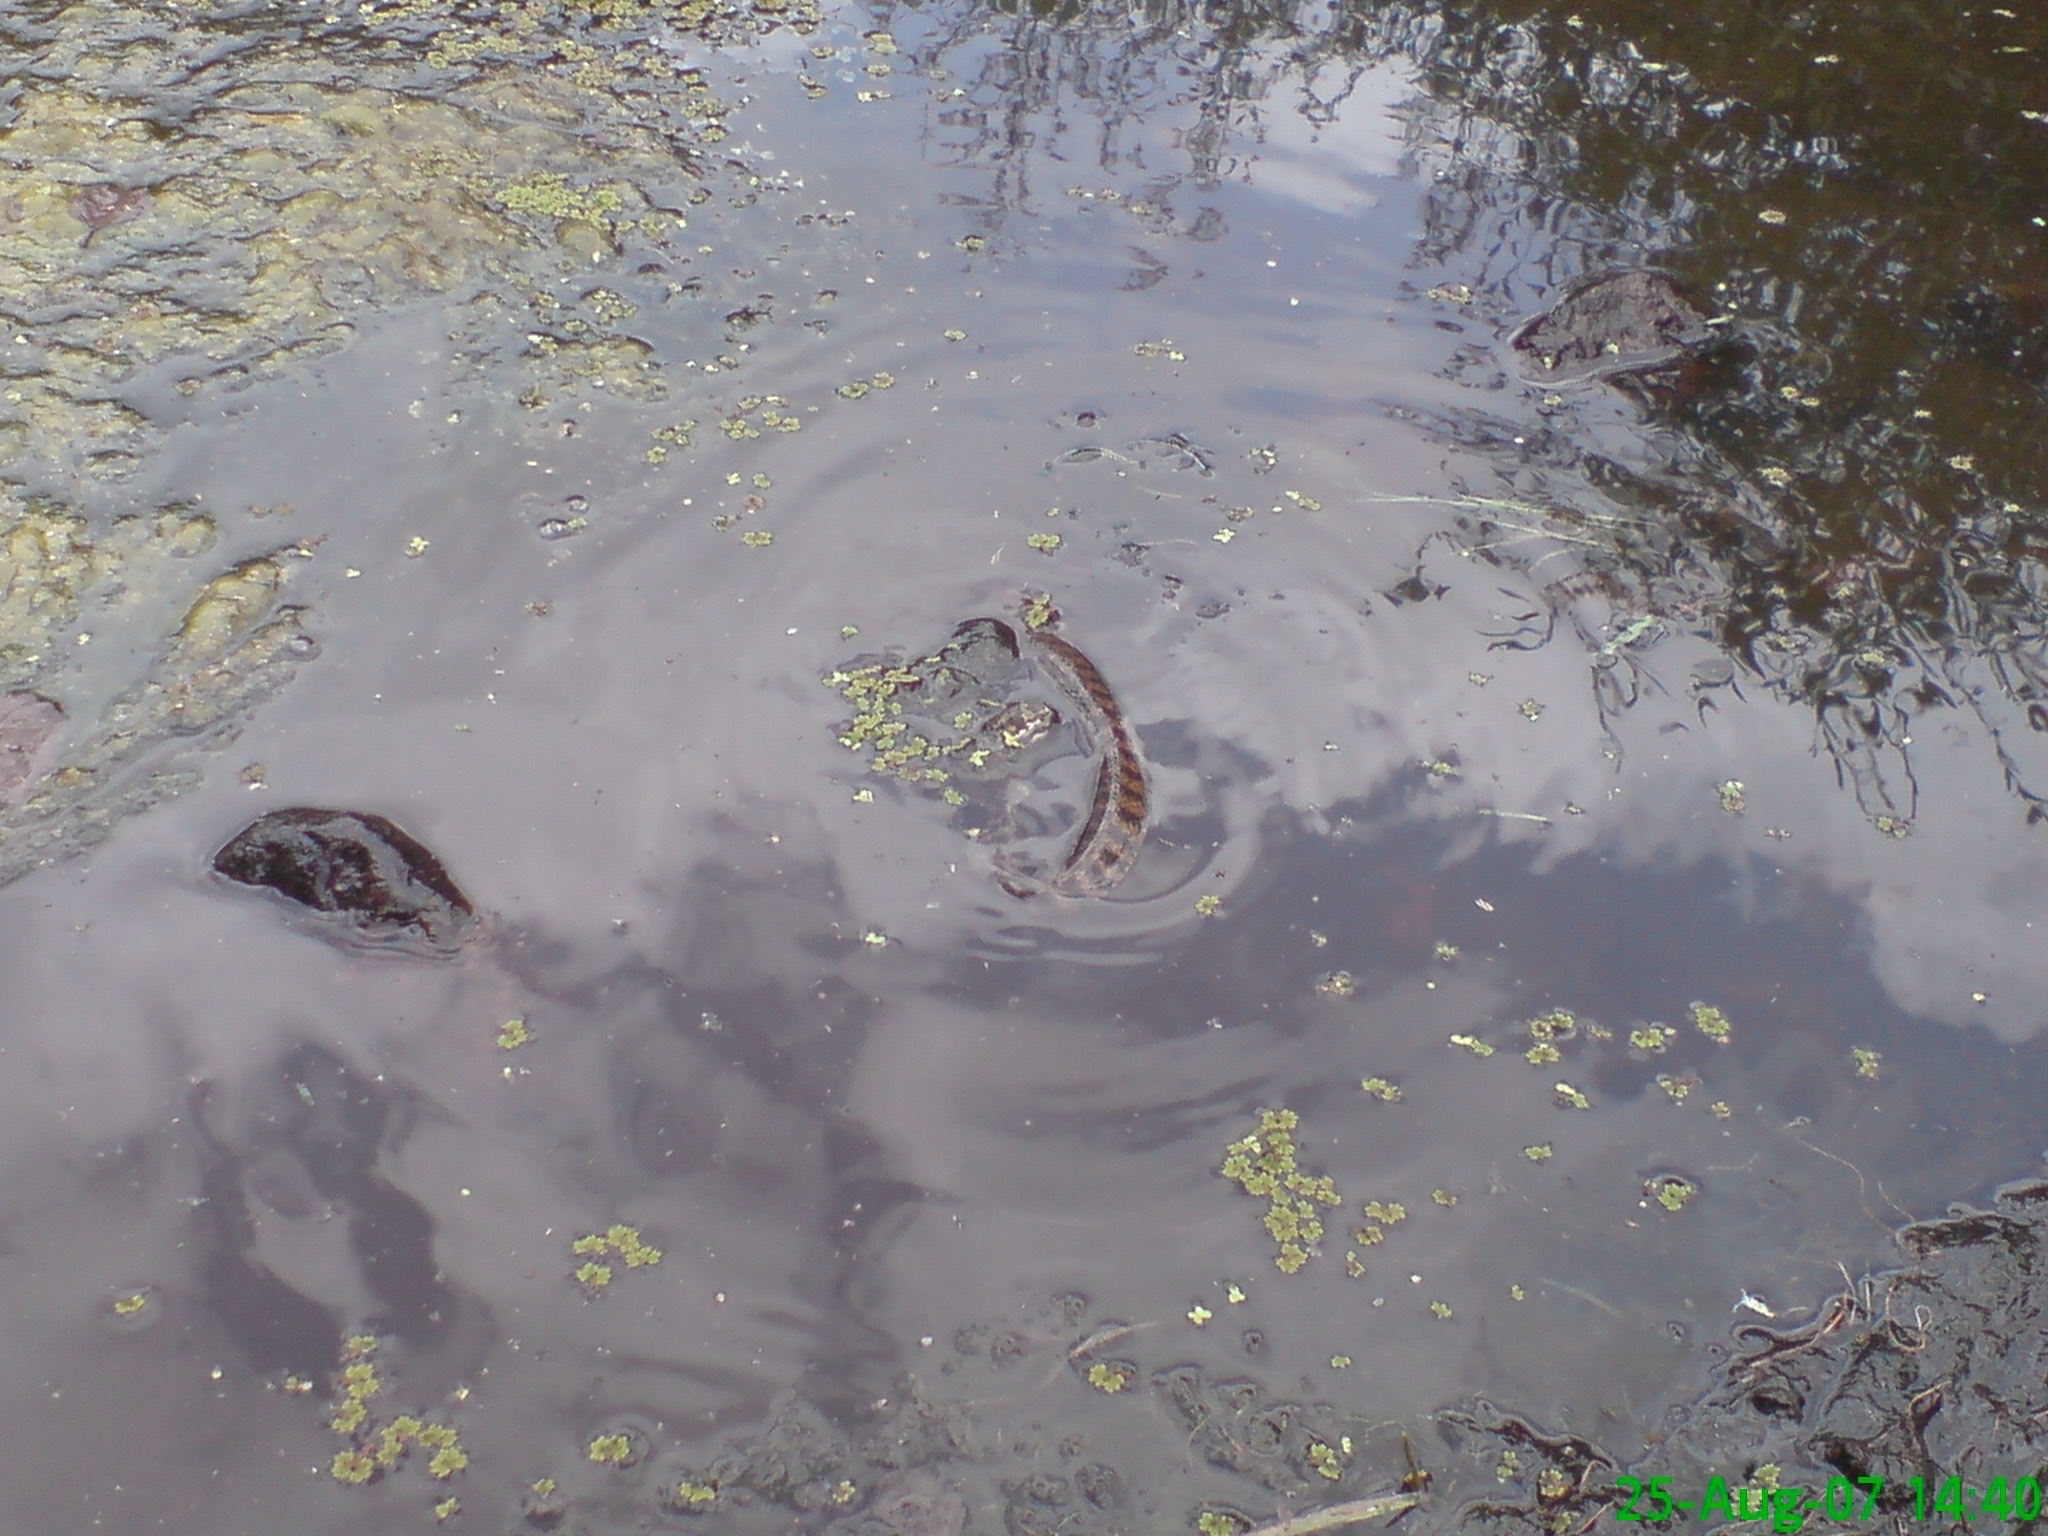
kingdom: Animalia
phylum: Chordata
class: Squamata
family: Colubridae
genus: Natrix
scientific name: Natrix maura
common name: Viperine water snake
